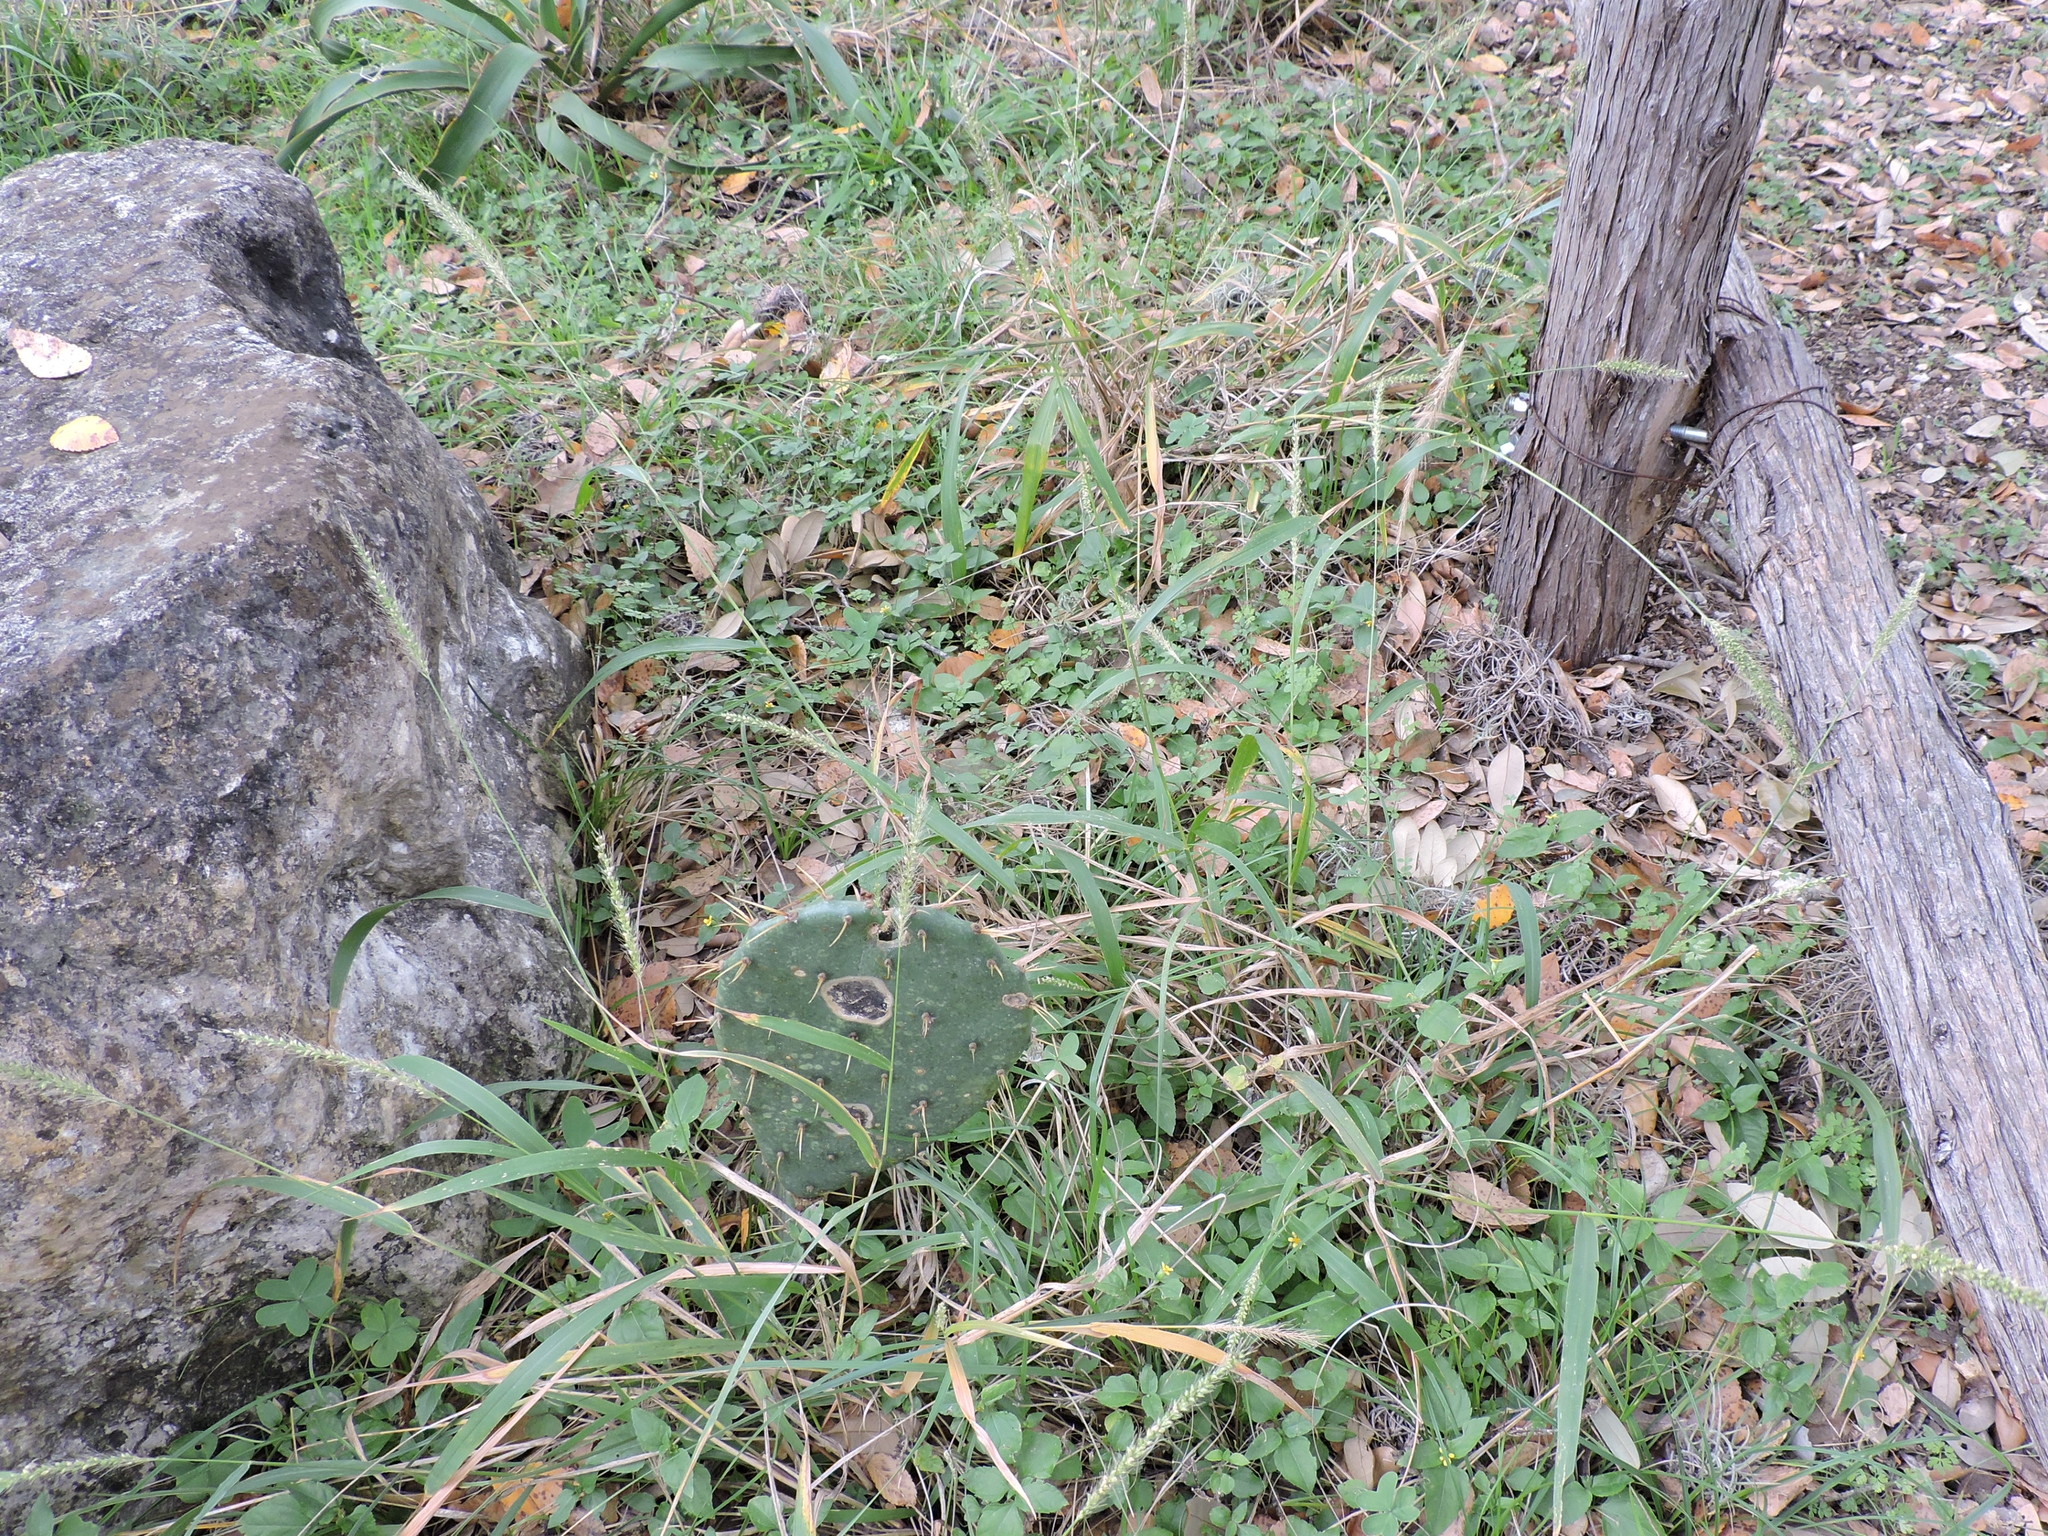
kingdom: Plantae
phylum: Tracheophyta
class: Liliopsida
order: Poales
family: Poaceae
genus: Setaria
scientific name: Setaria scheelei
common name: Southwestern bristle grass
